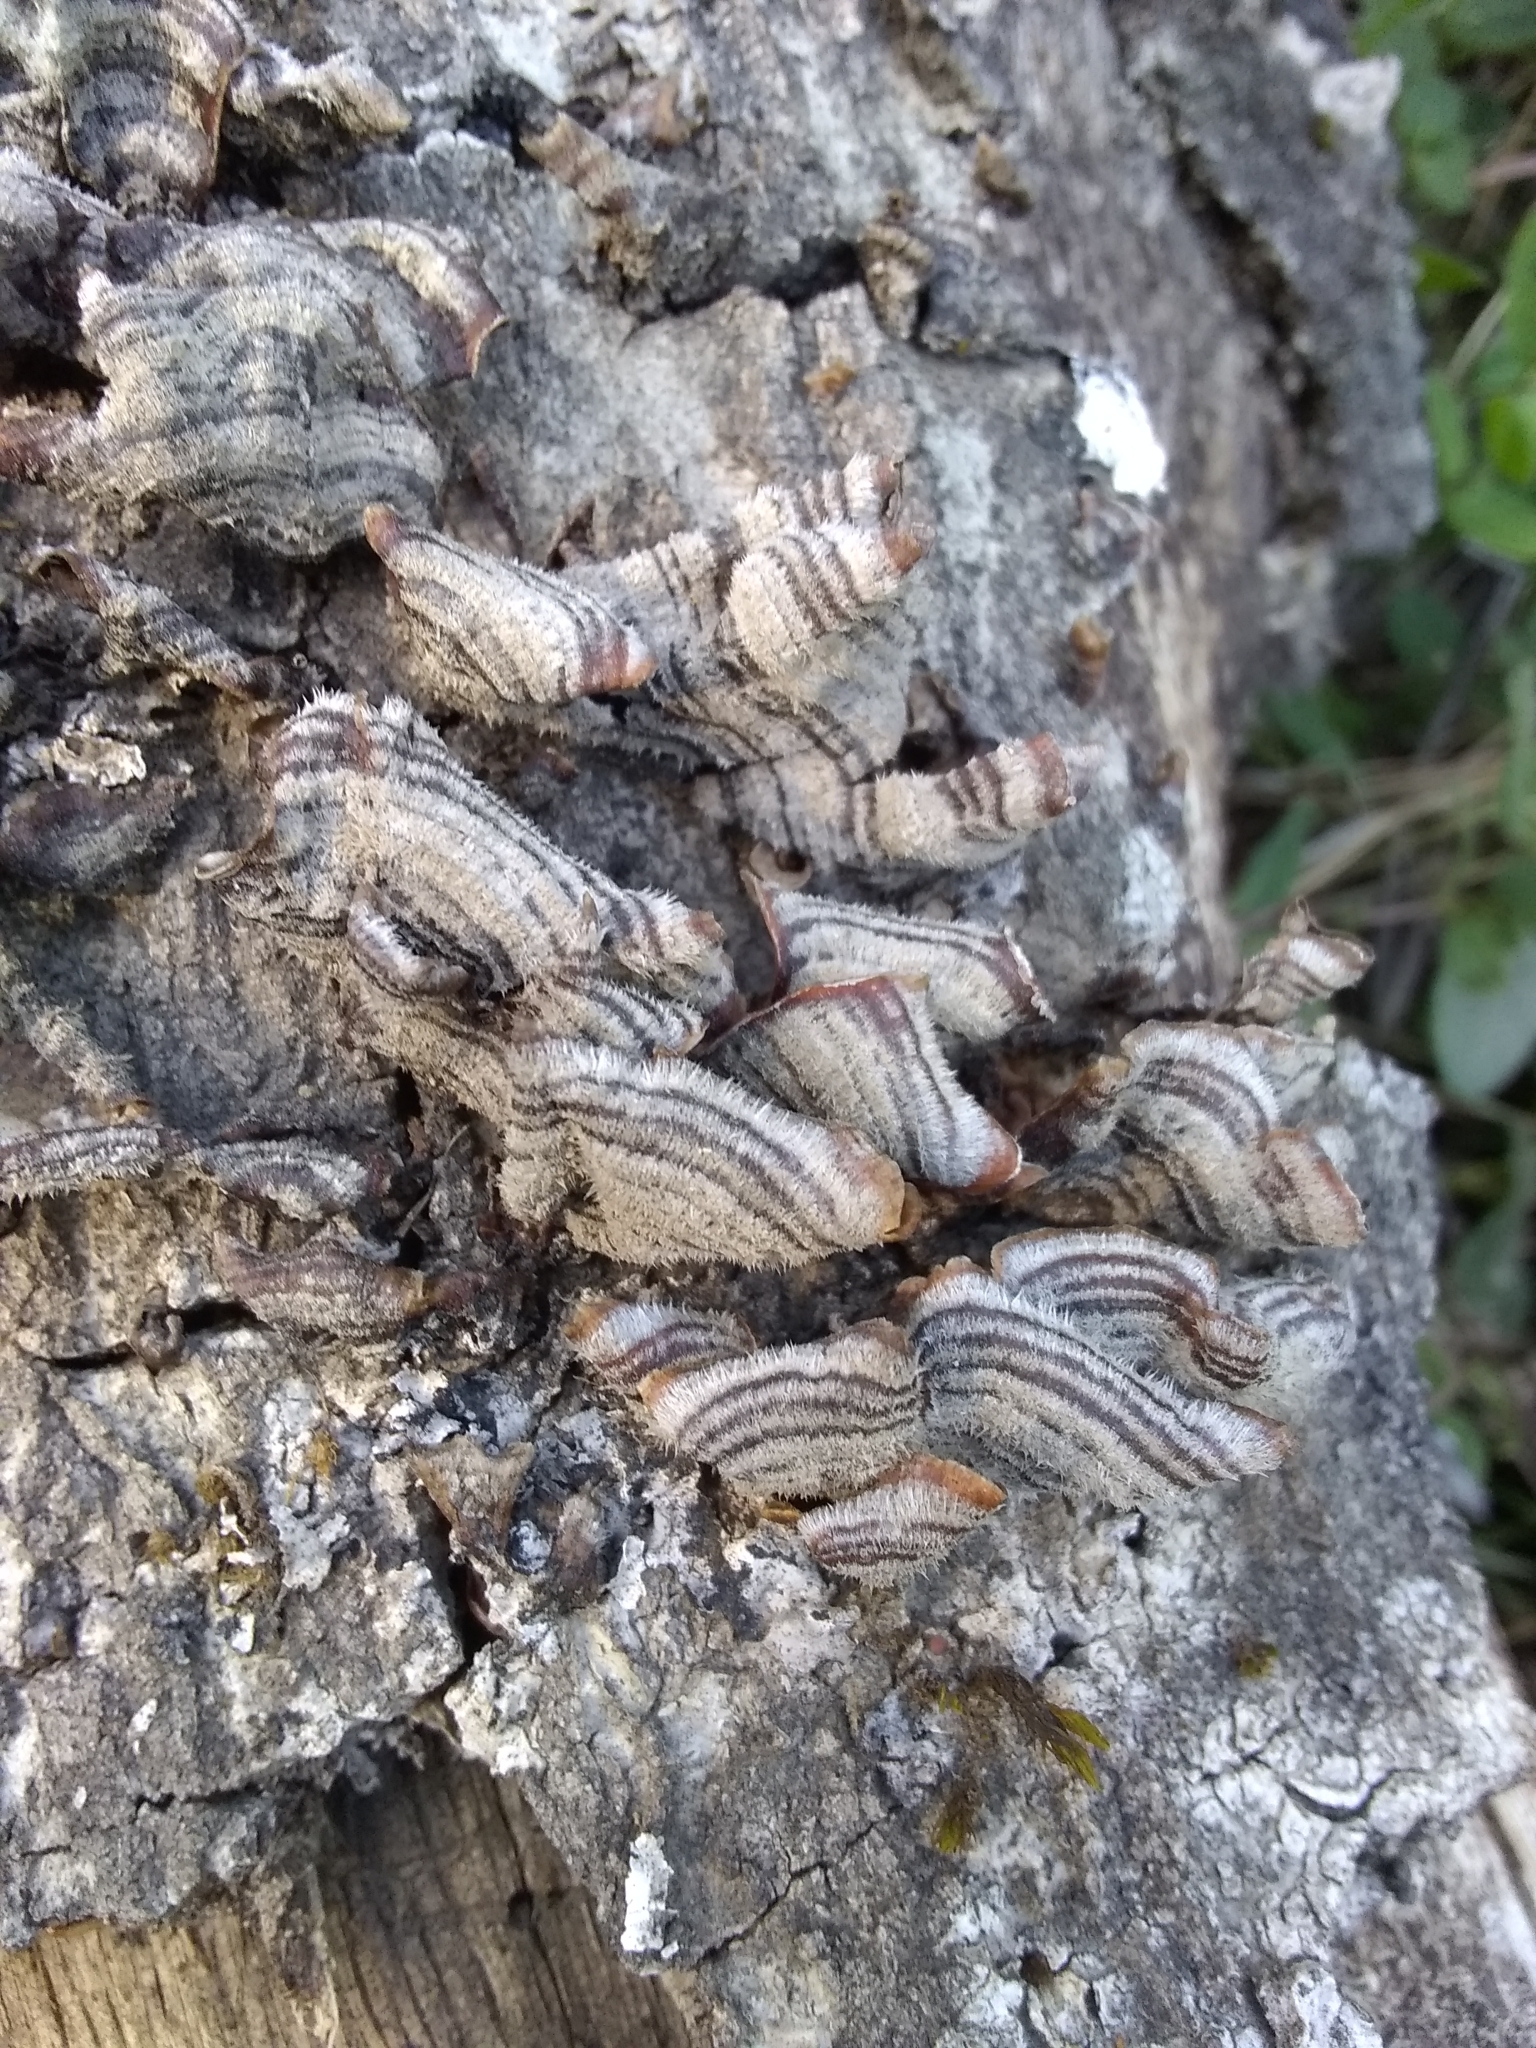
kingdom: Fungi
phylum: Basidiomycota
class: Agaricomycetes
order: Russulales
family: Stereaceae
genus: Stereum
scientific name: Stereum hirsutum
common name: Hairy curtain crust
